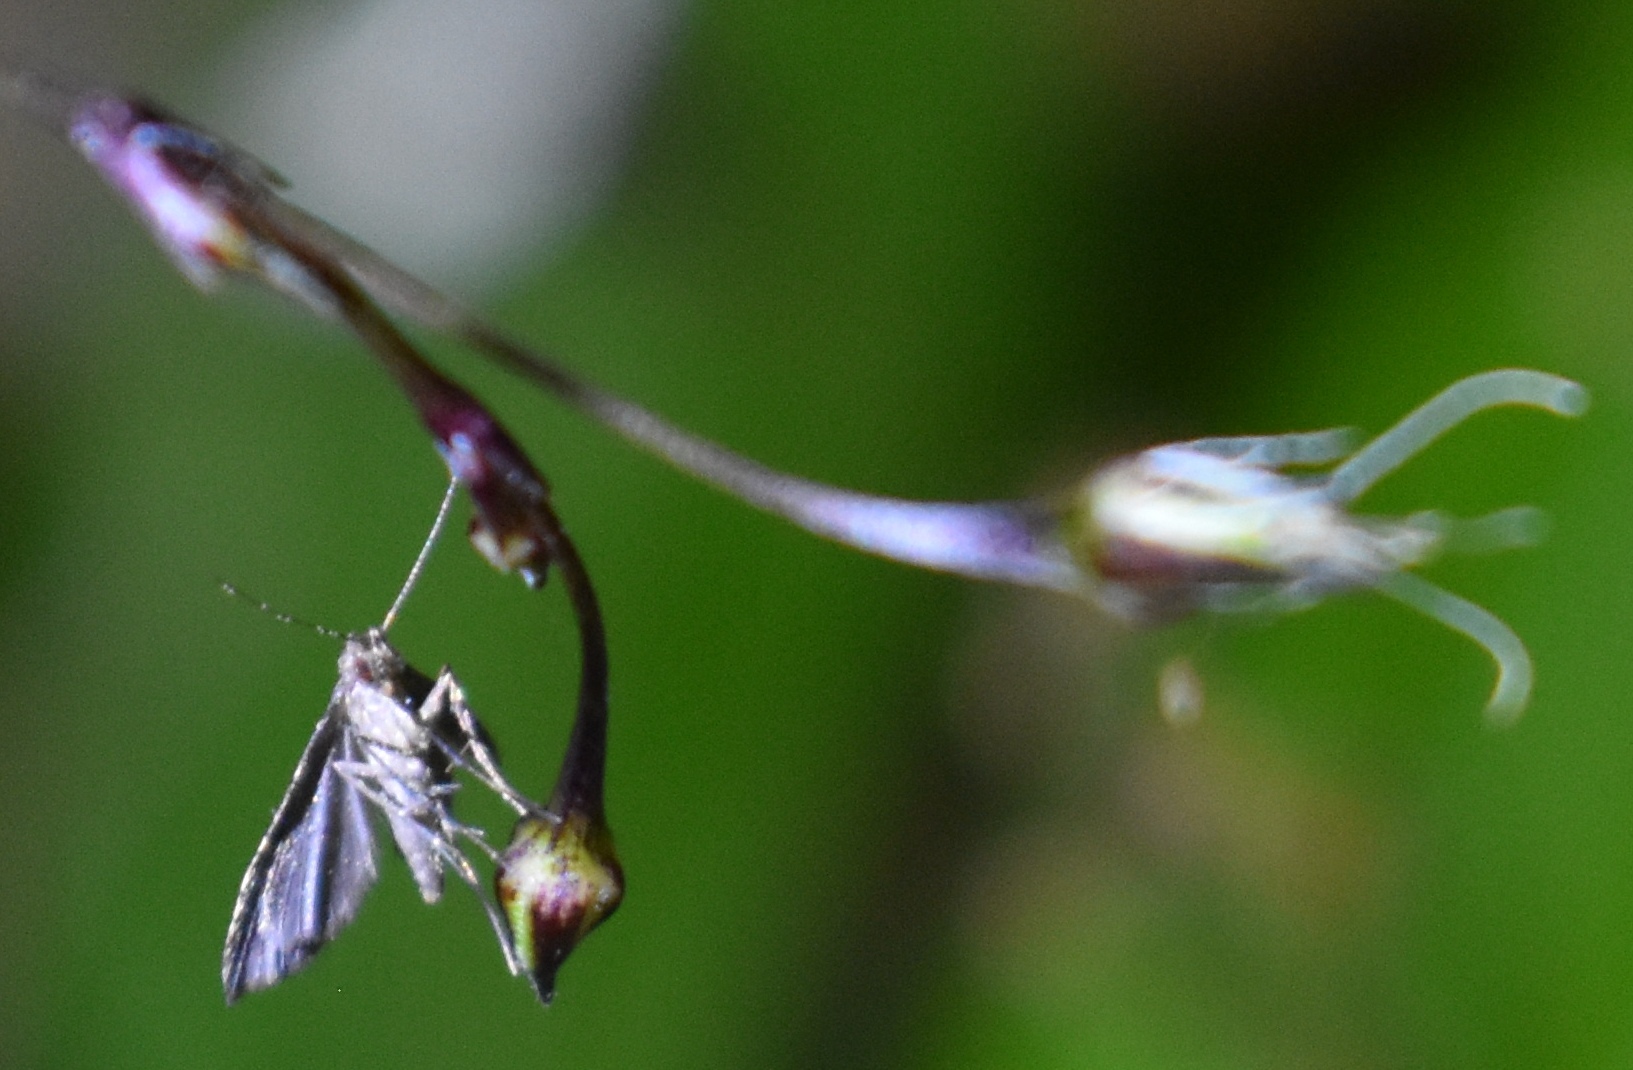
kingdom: Animalia
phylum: Arthropoda
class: Insecta
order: Lepidoptera
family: Erebidae
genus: Pseudoschrankia
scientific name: Pseudoschrankia brevipalpis
